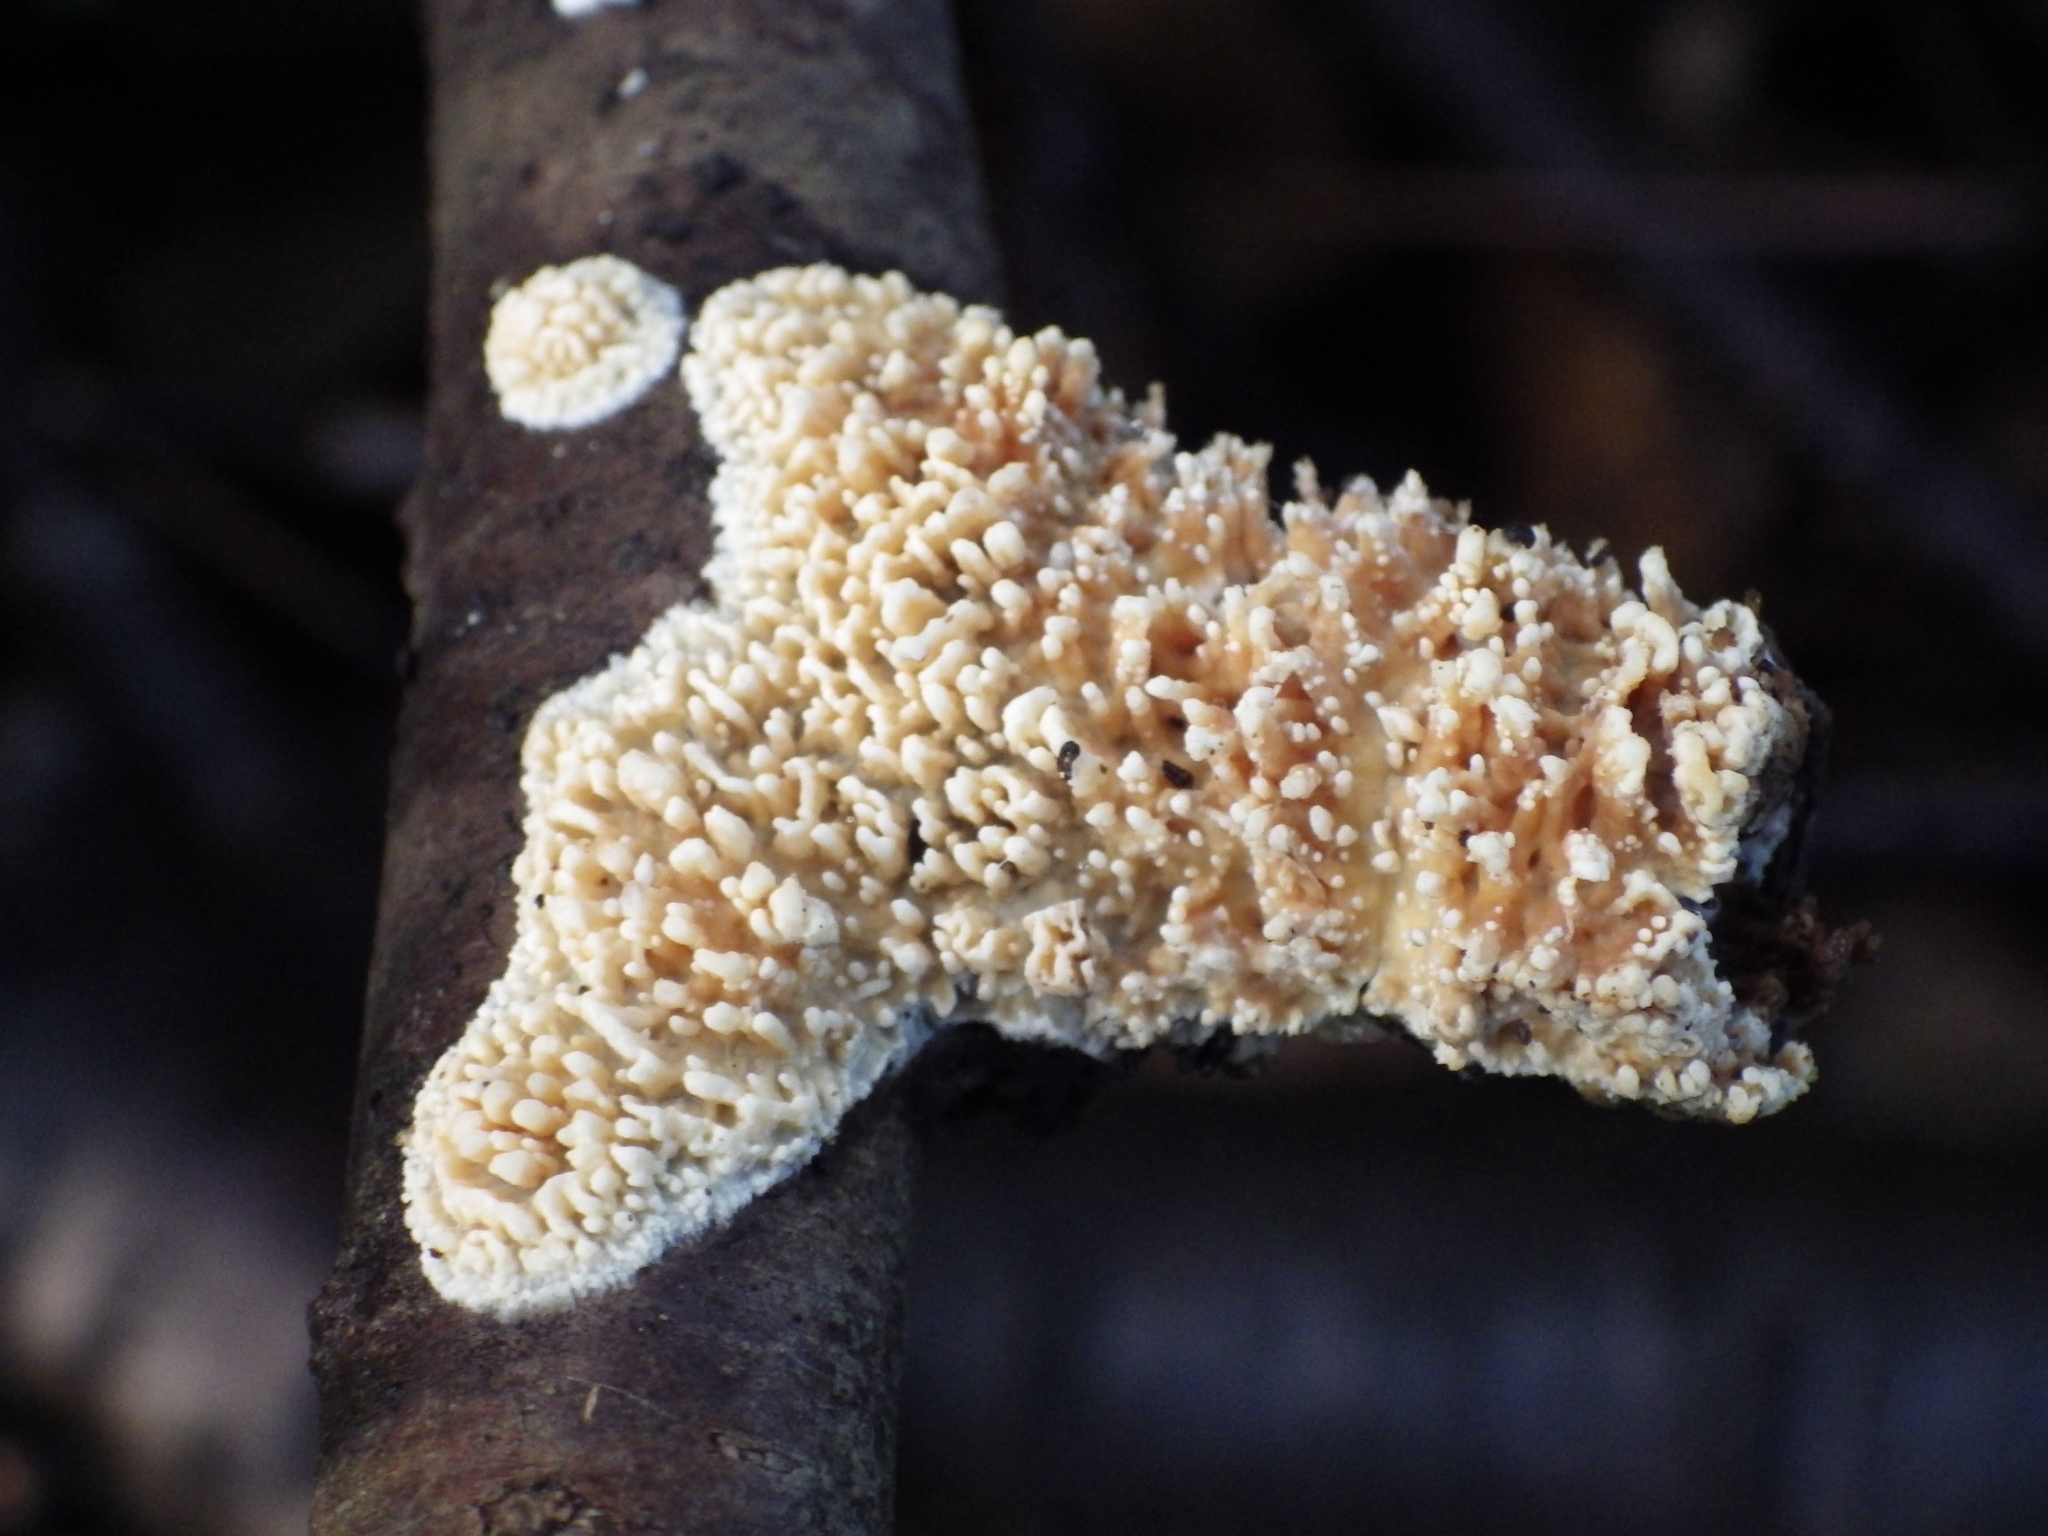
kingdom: Fungi
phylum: Basidiomycota
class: Agaricomycetes
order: Hymenochaetales
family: Schizoporaceae
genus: Xylodon
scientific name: Xylodon radula
